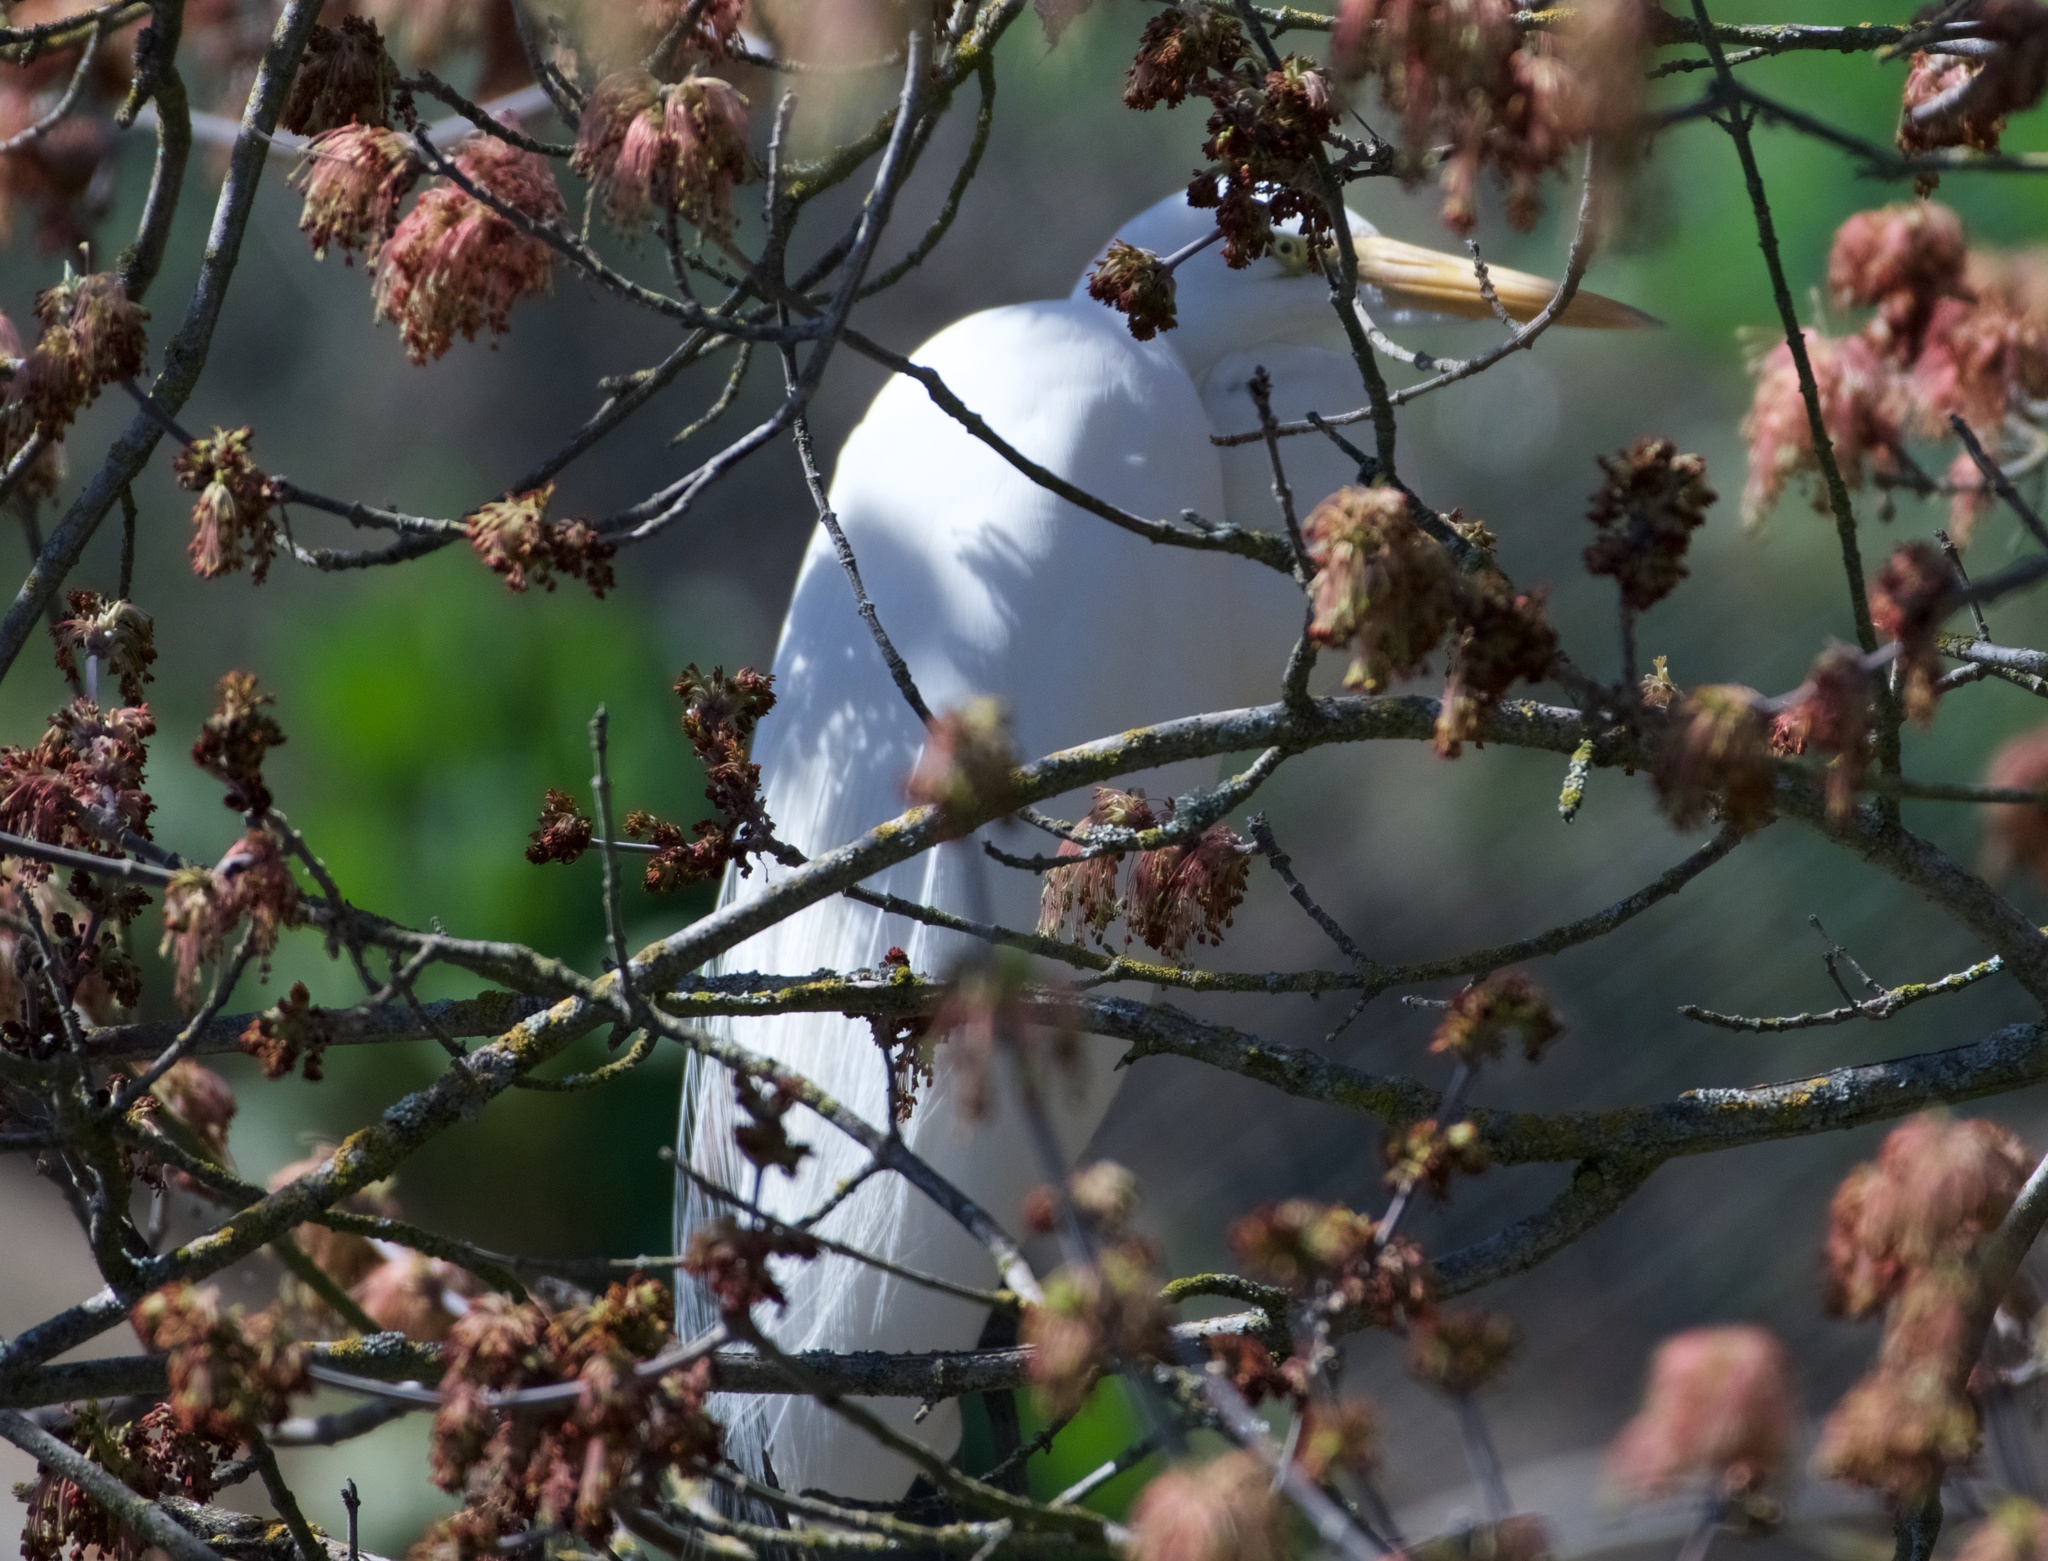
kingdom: Animalia
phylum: Chordata
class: Aves
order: Pelecaniformes
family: Ardeidae
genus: Ardea
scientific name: Ardea alba
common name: Great egret
